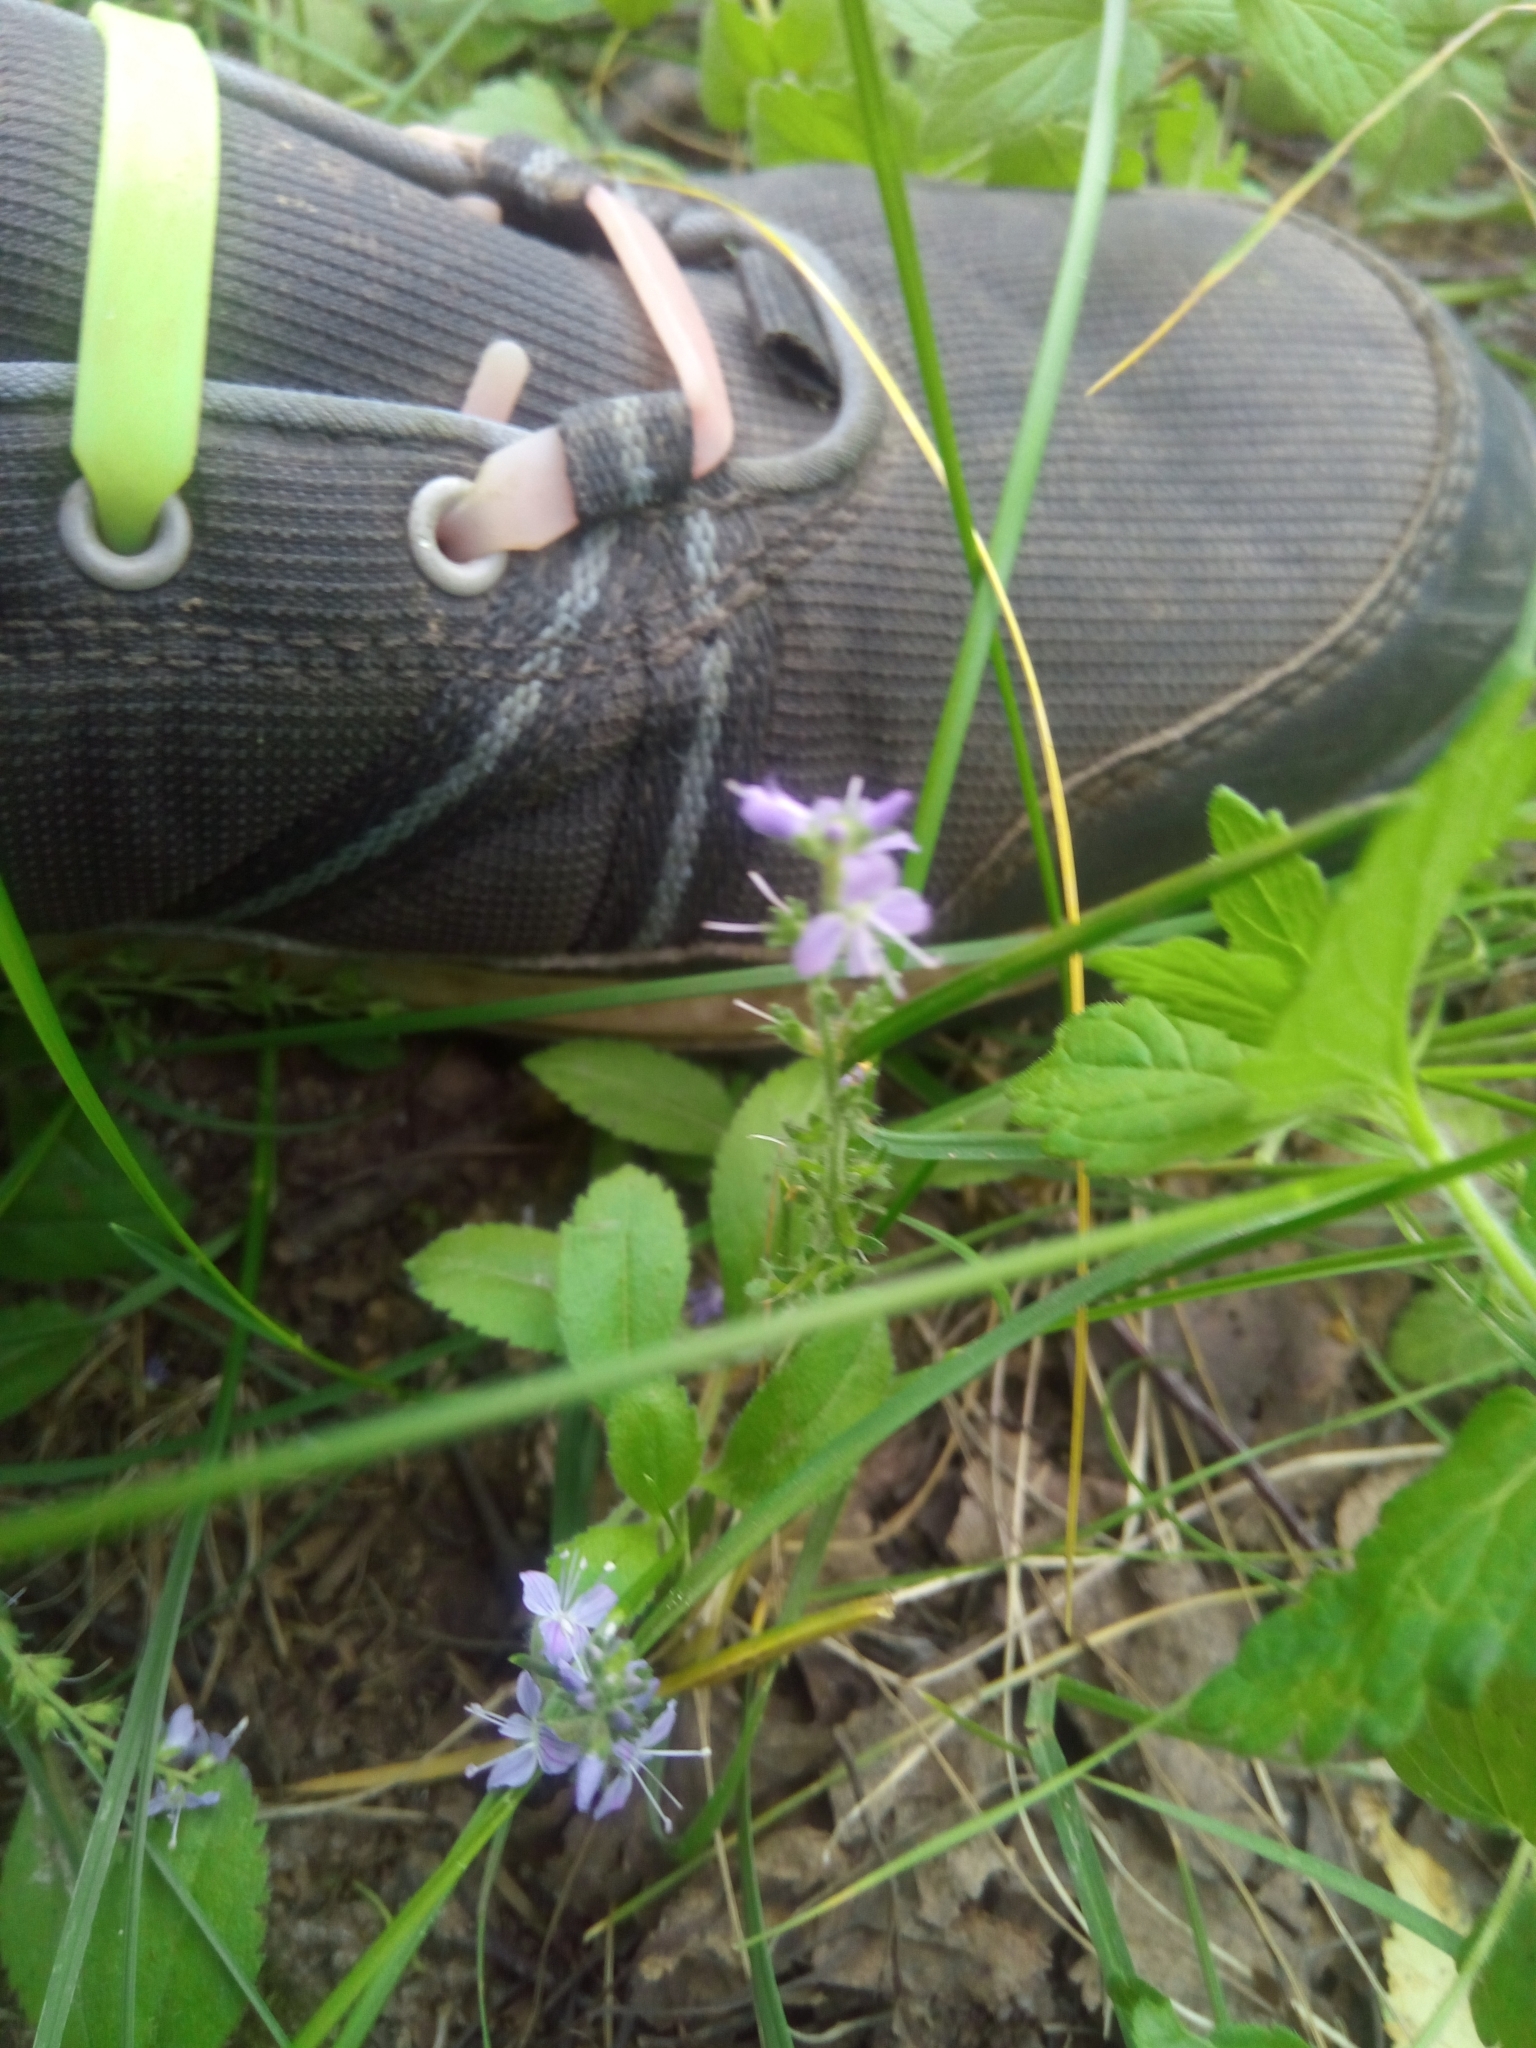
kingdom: Plantae
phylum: Tracheophyta
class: Magnoliopsida
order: Lamiales
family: Plantaginaceae
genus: Veronica
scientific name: Veronica officinalis
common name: Common speedwell
